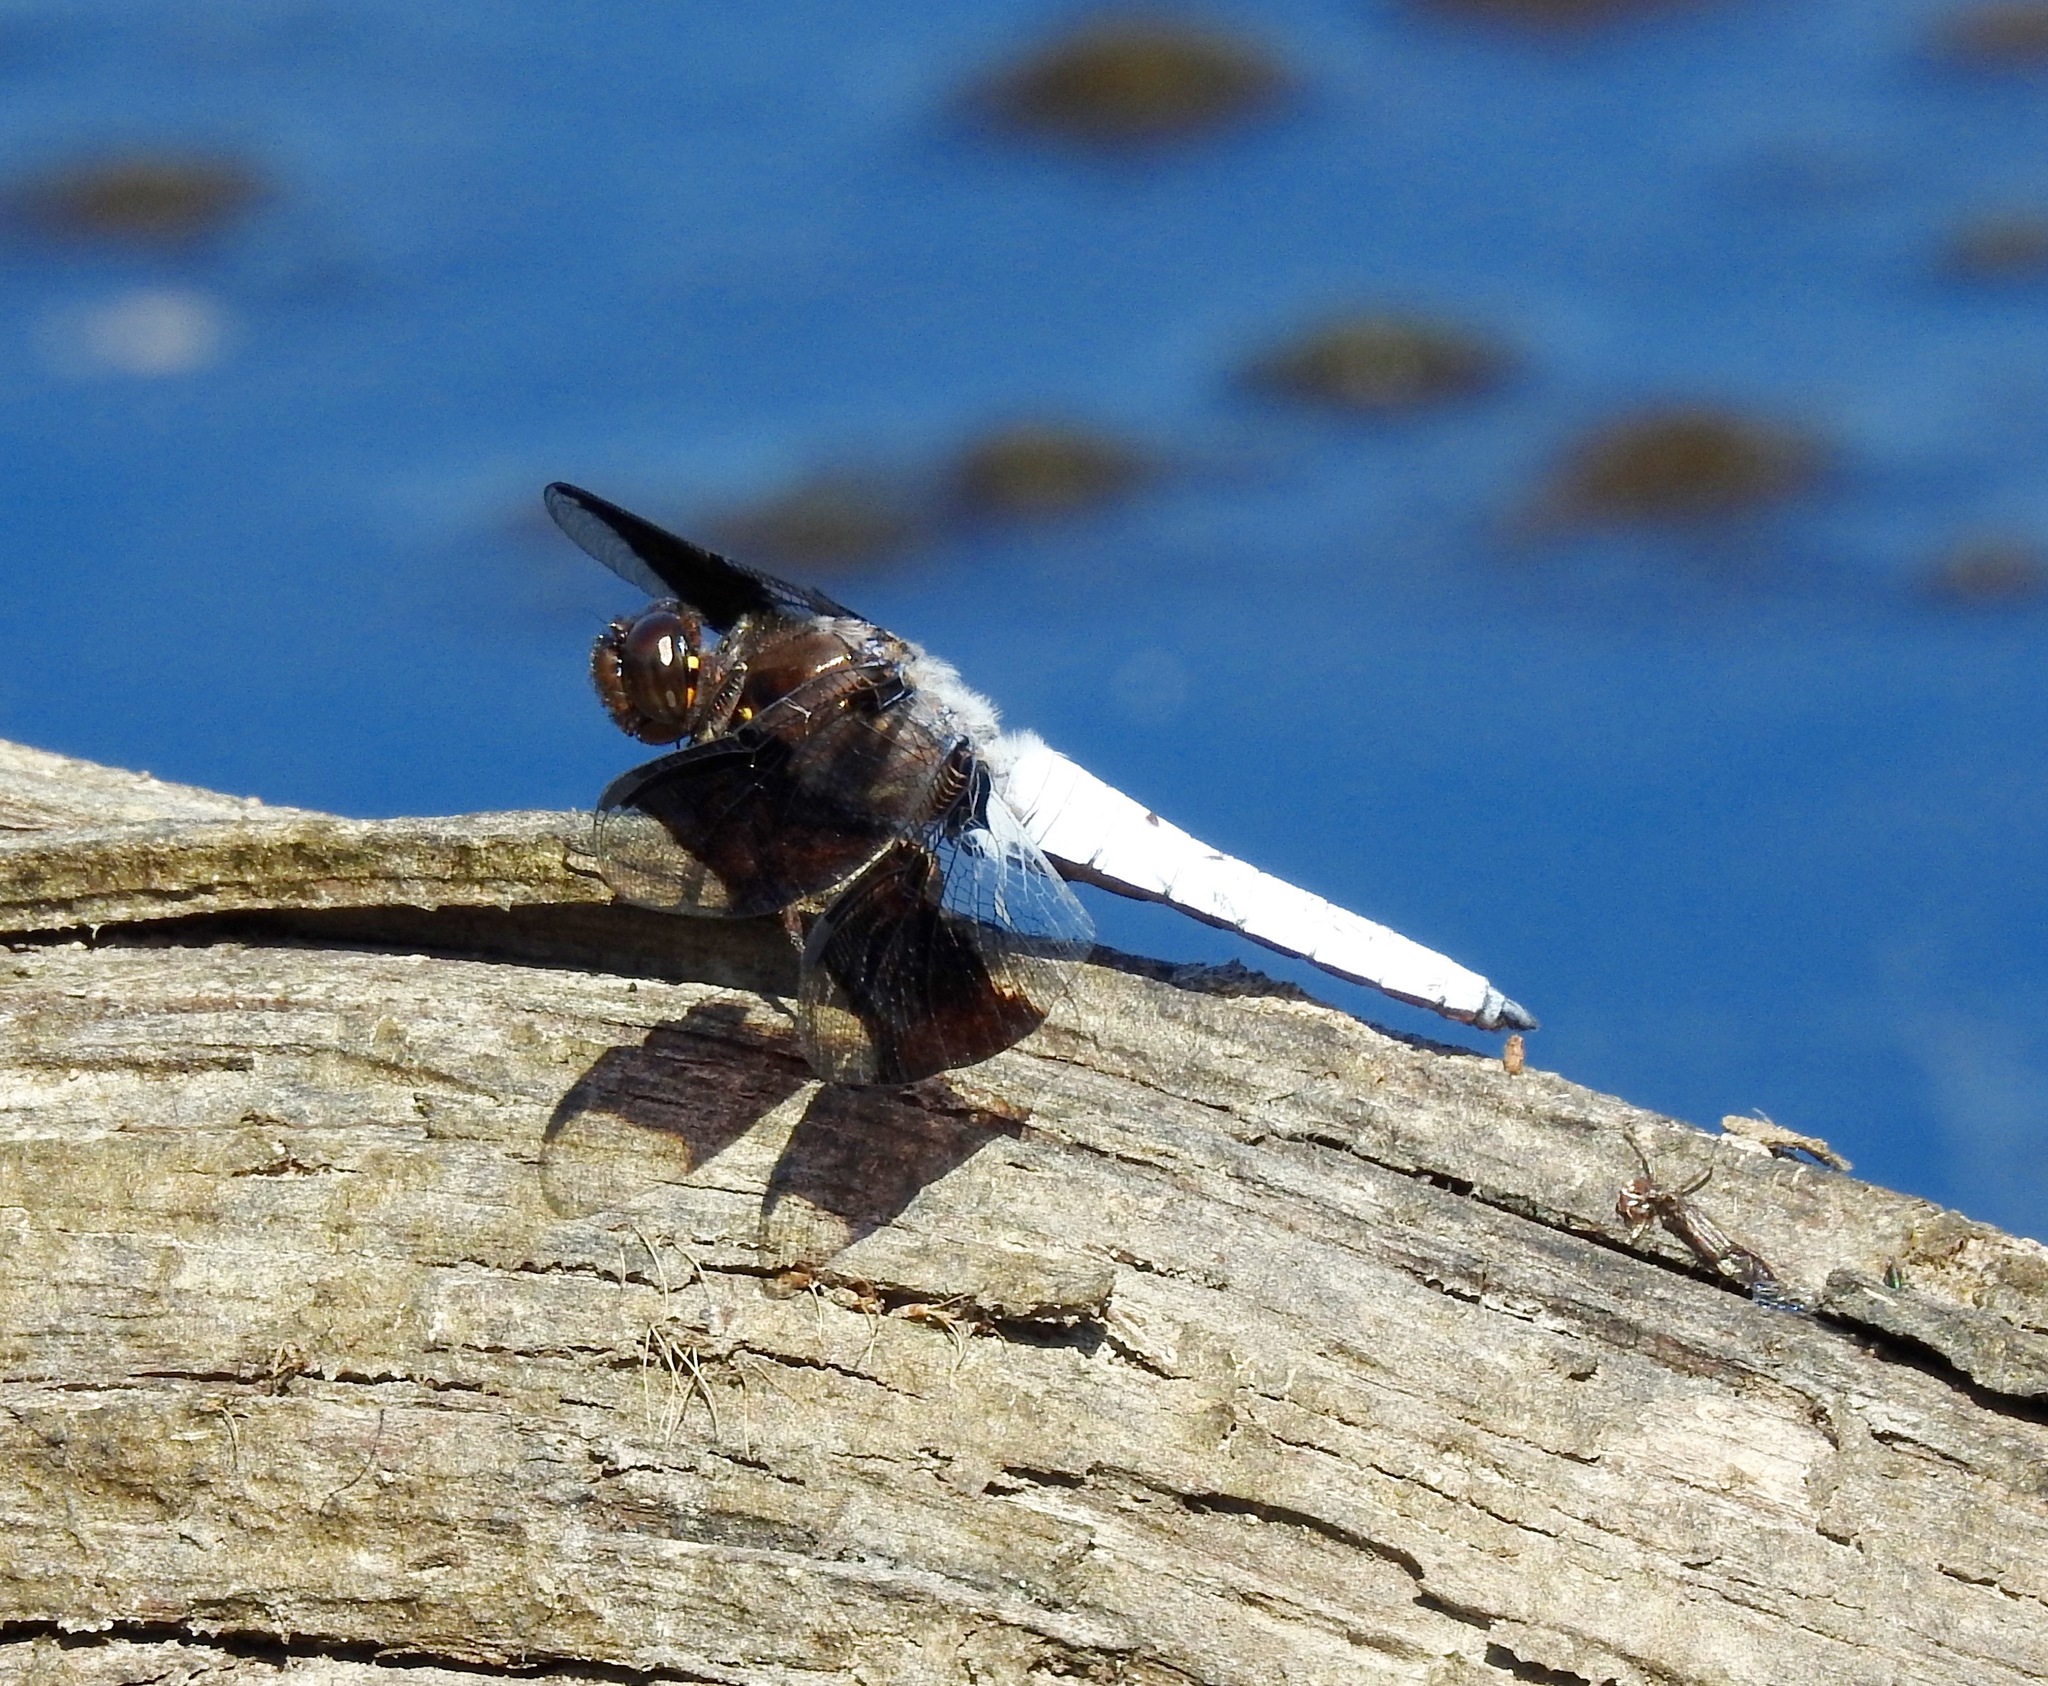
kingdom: Animalia
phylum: Arthropoda
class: Insecta
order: Odonata
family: Libellulidae
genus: Plathemis
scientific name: Plathemis lydia
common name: Common whitetail
